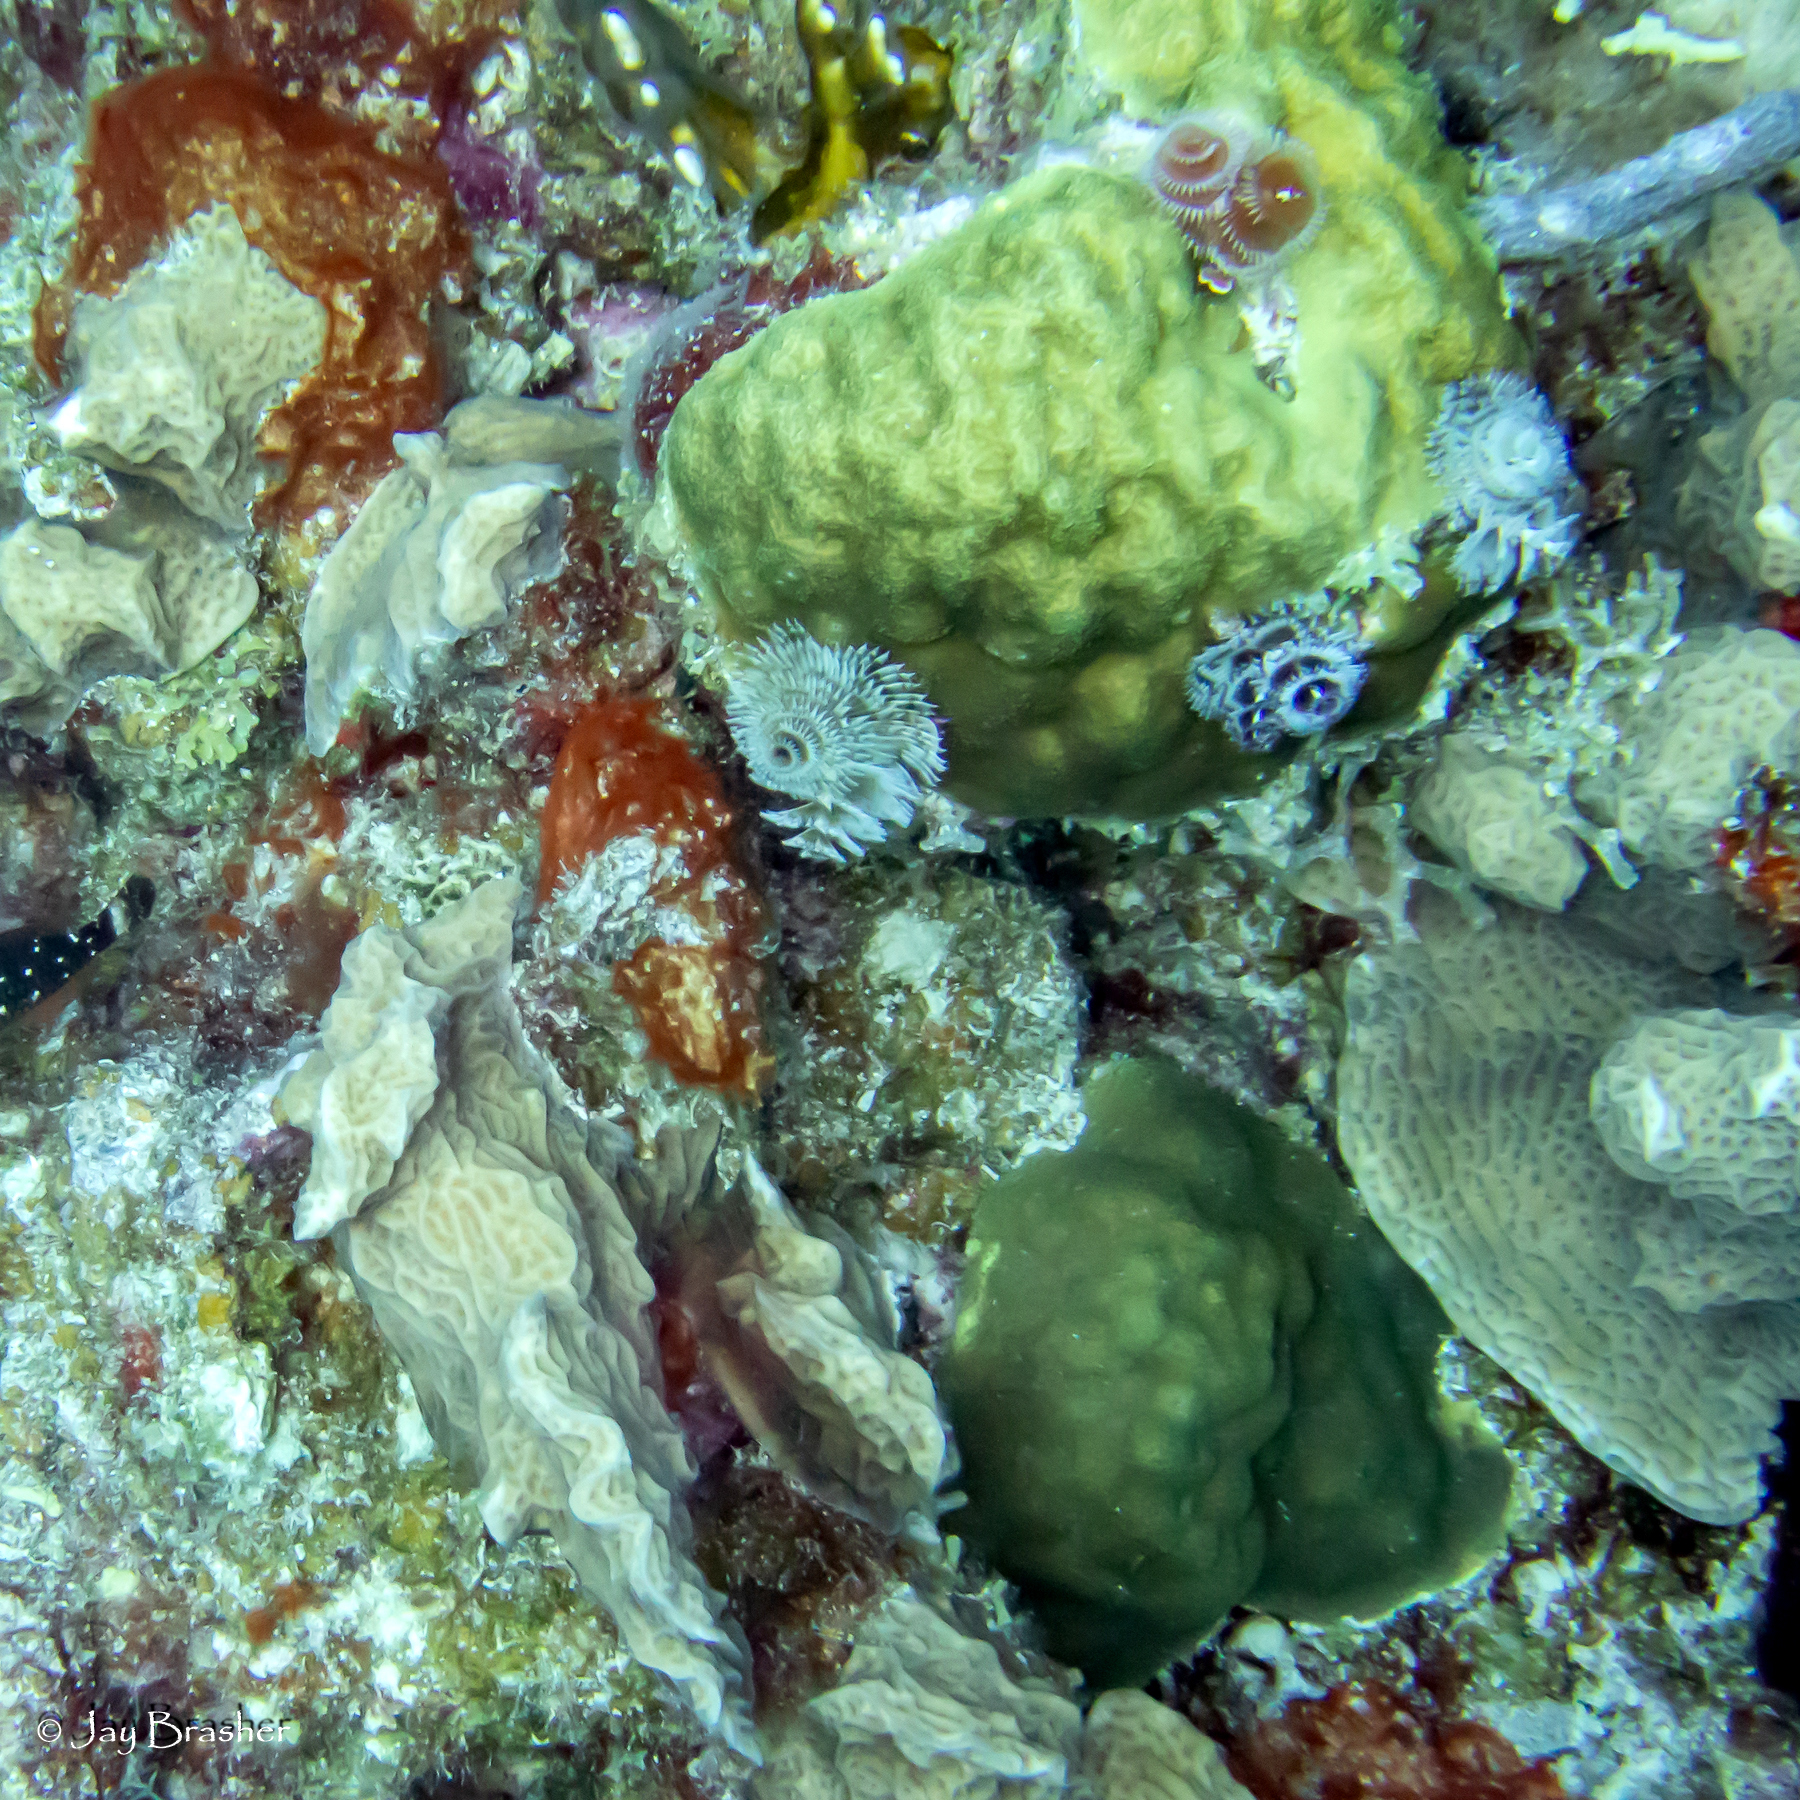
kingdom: Animalia
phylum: Cnidaria
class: Anthozoa
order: Scleractinia
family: Agariciidae
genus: Agaricia
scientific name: Agaricia agaricites
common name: Lettuce coral
